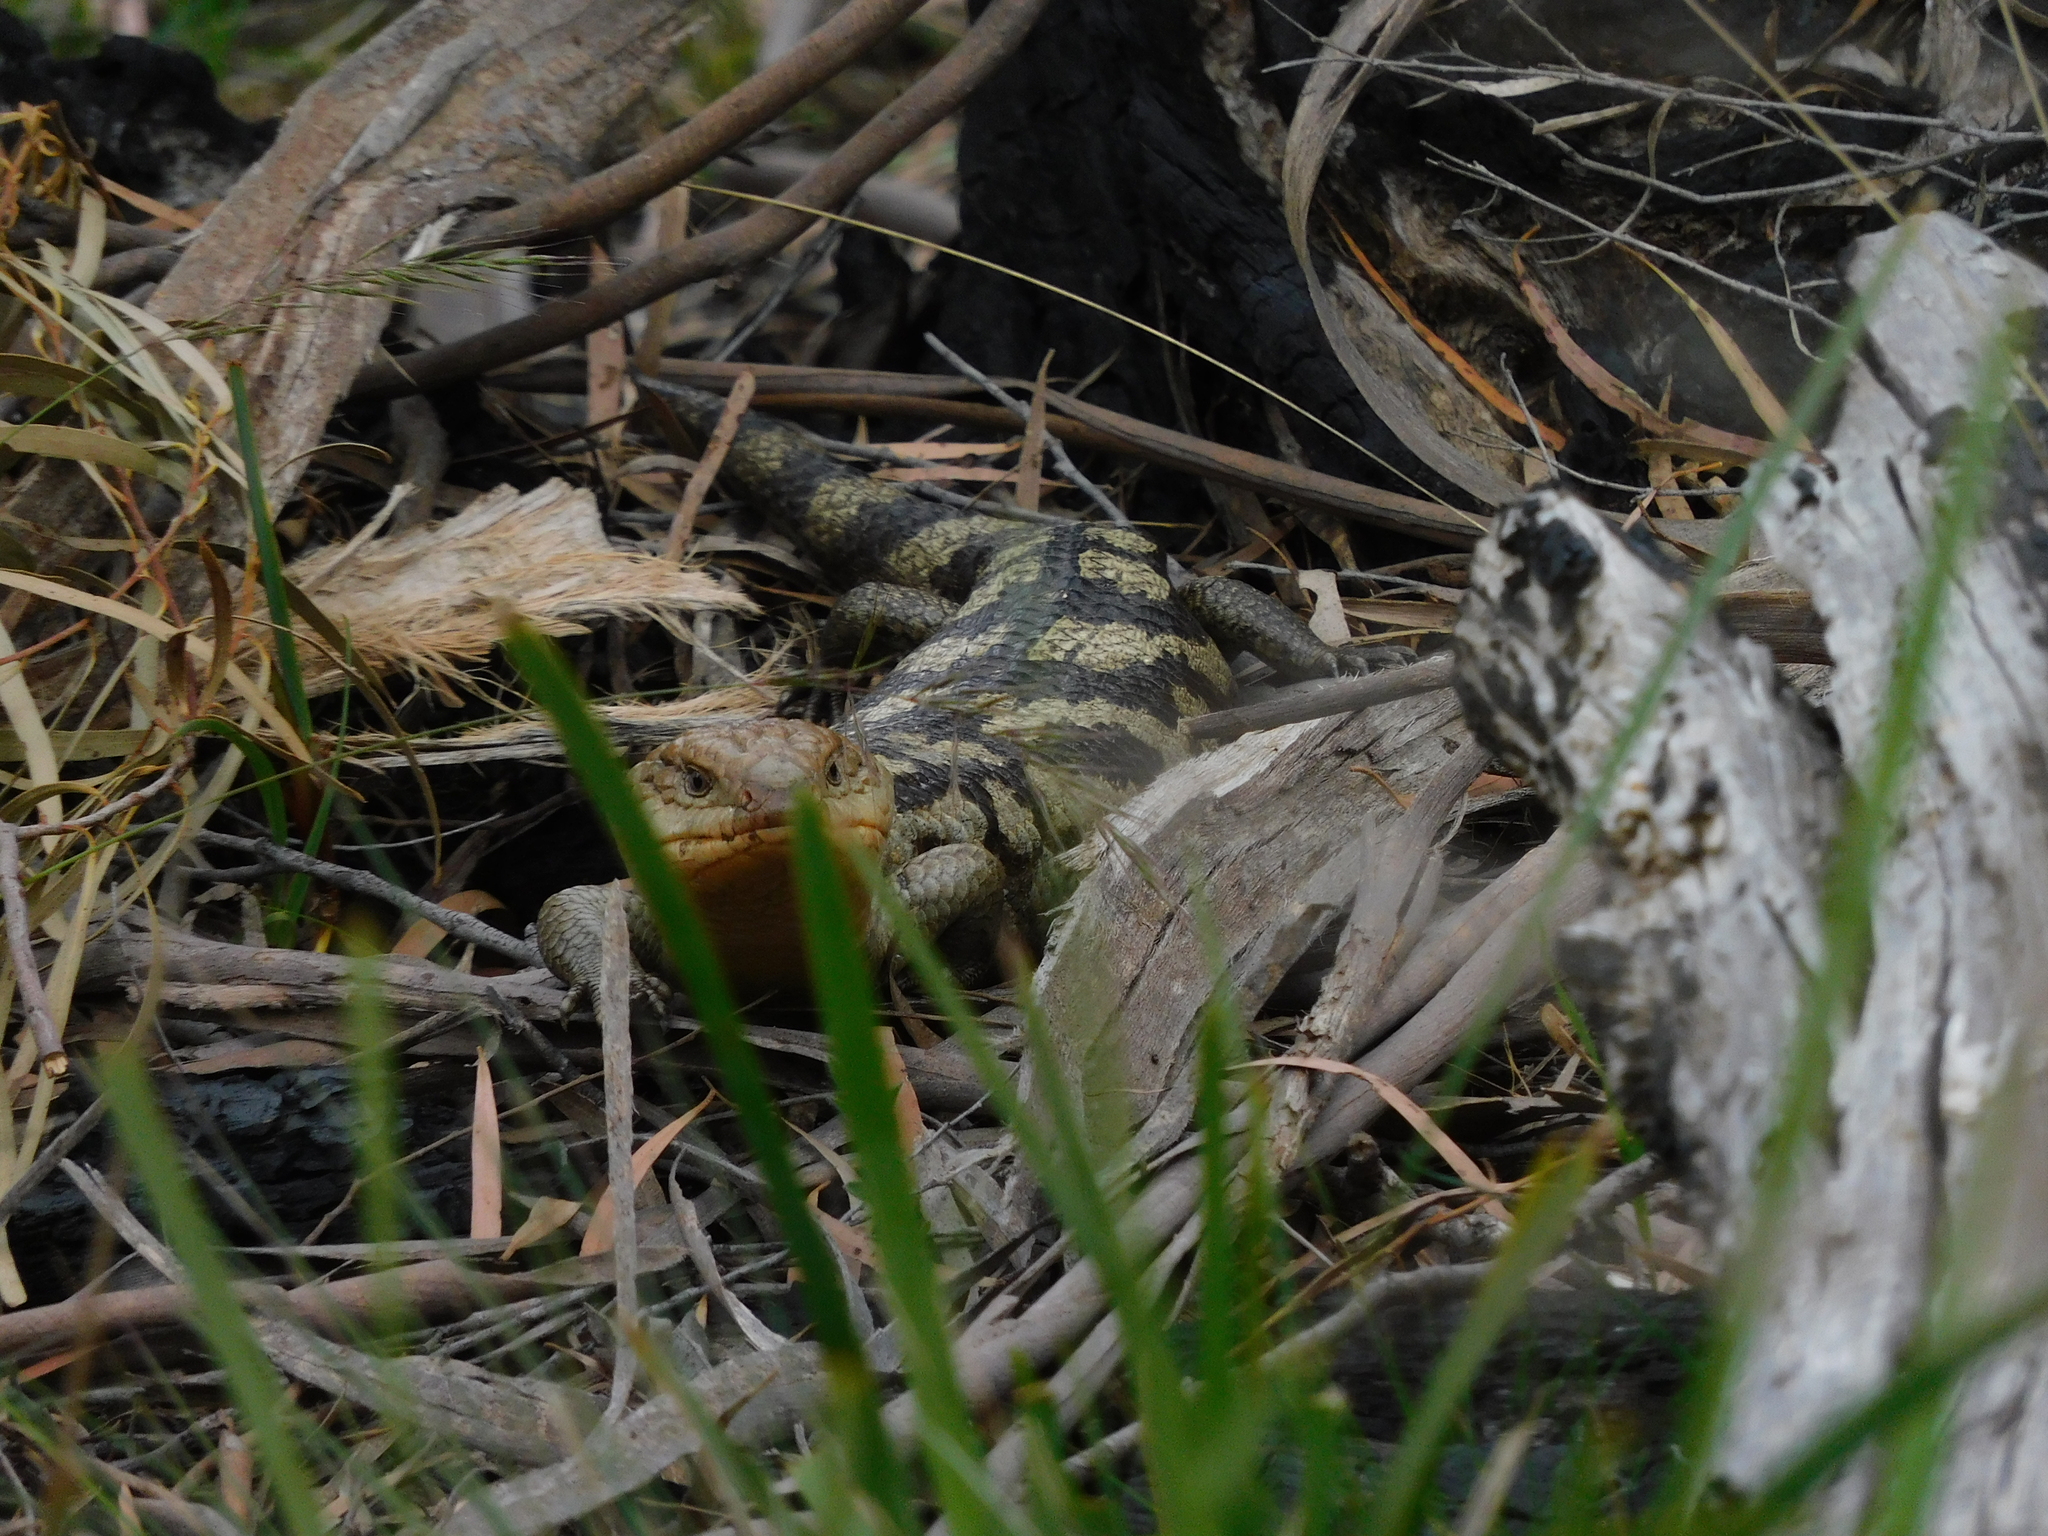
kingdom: Animalia
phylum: Chordata
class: Squamata
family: Scincidae
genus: Tiliqua
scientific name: Tiliqua nigrolutea
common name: Blotched blue-tongued lizard
